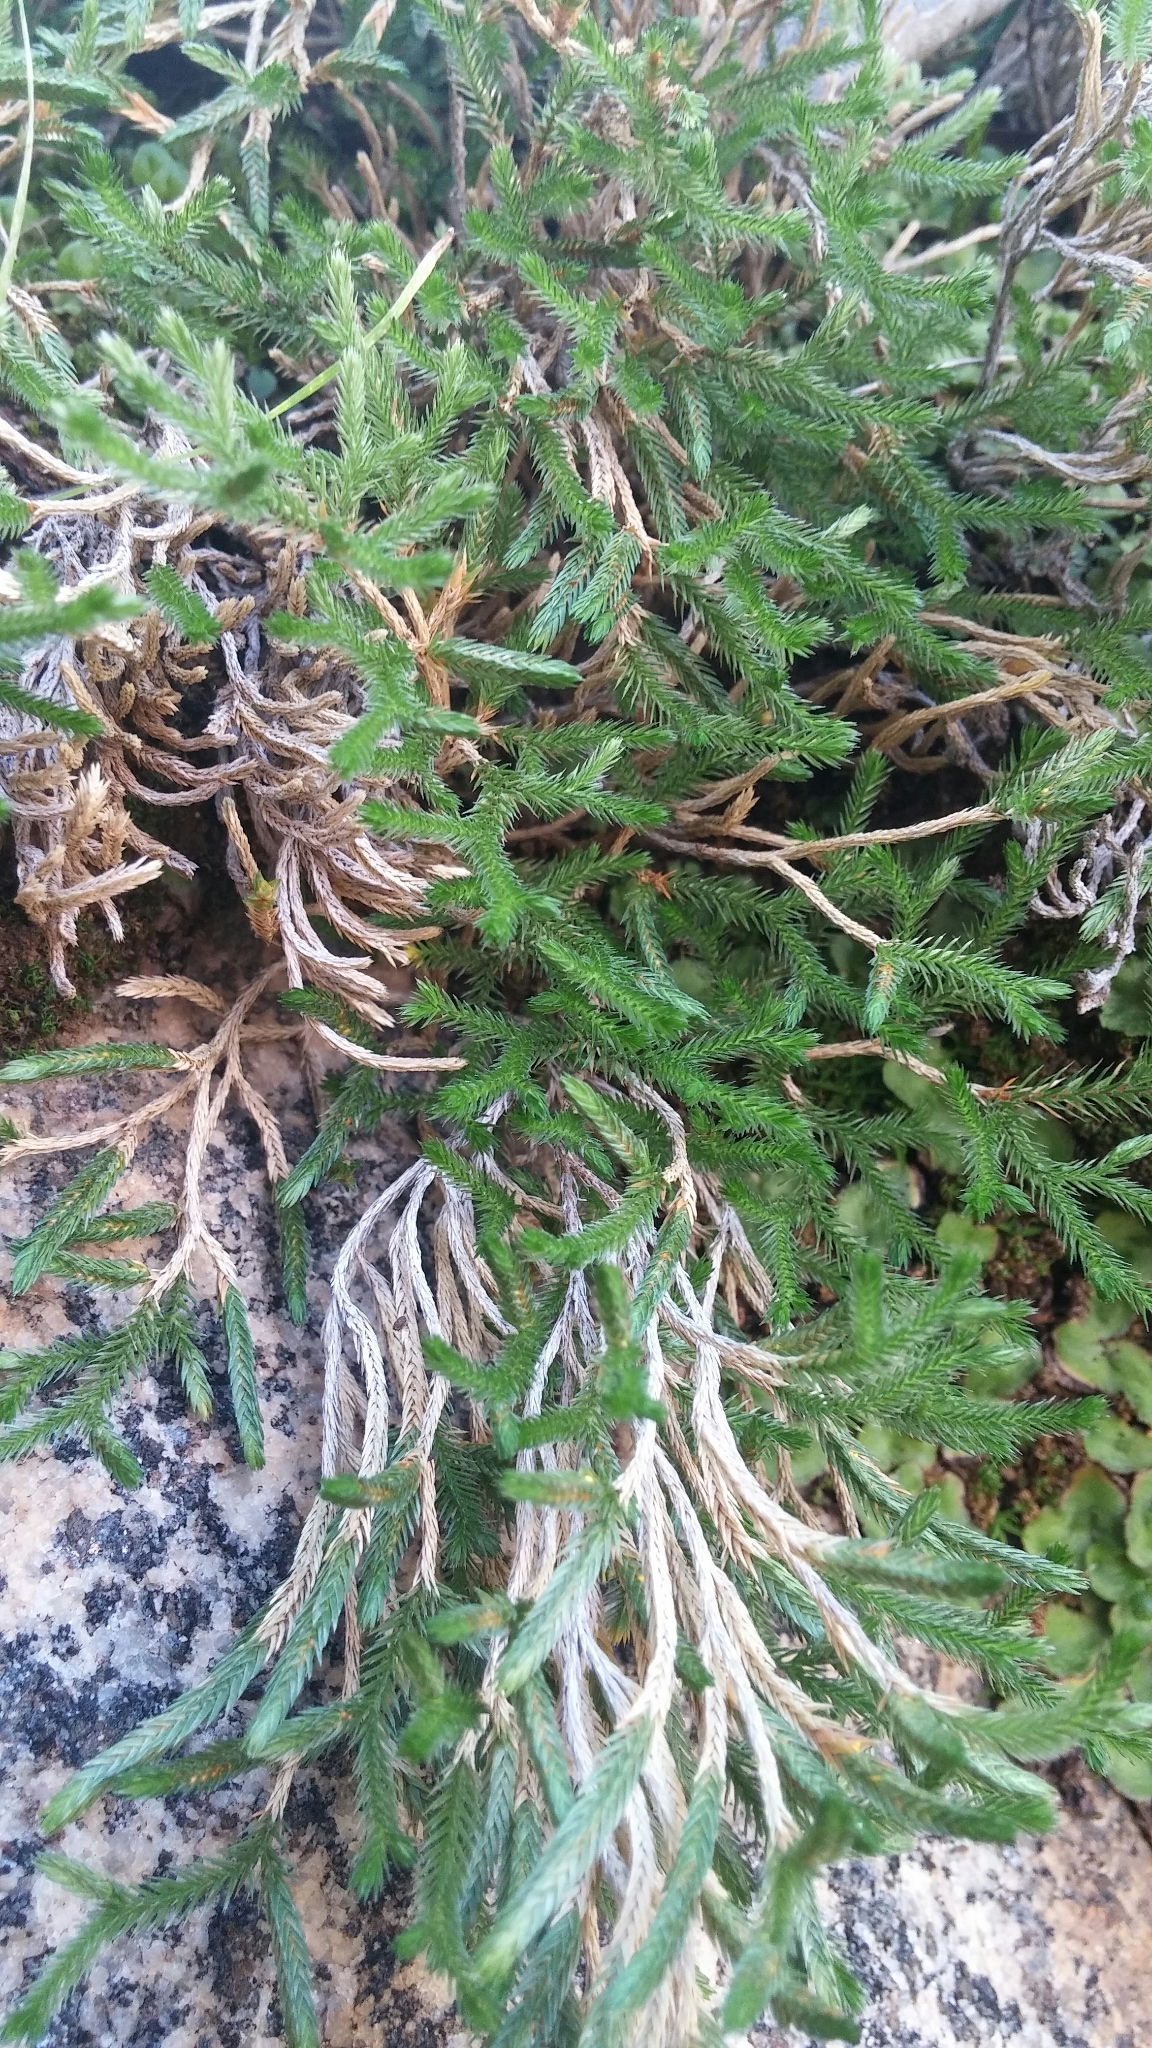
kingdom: Plantae
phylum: Tracheophyta
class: Lycopodiopsida
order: Selaginellales
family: Selaginellaceae
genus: Selaginella
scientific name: Selaginella bigelovii
